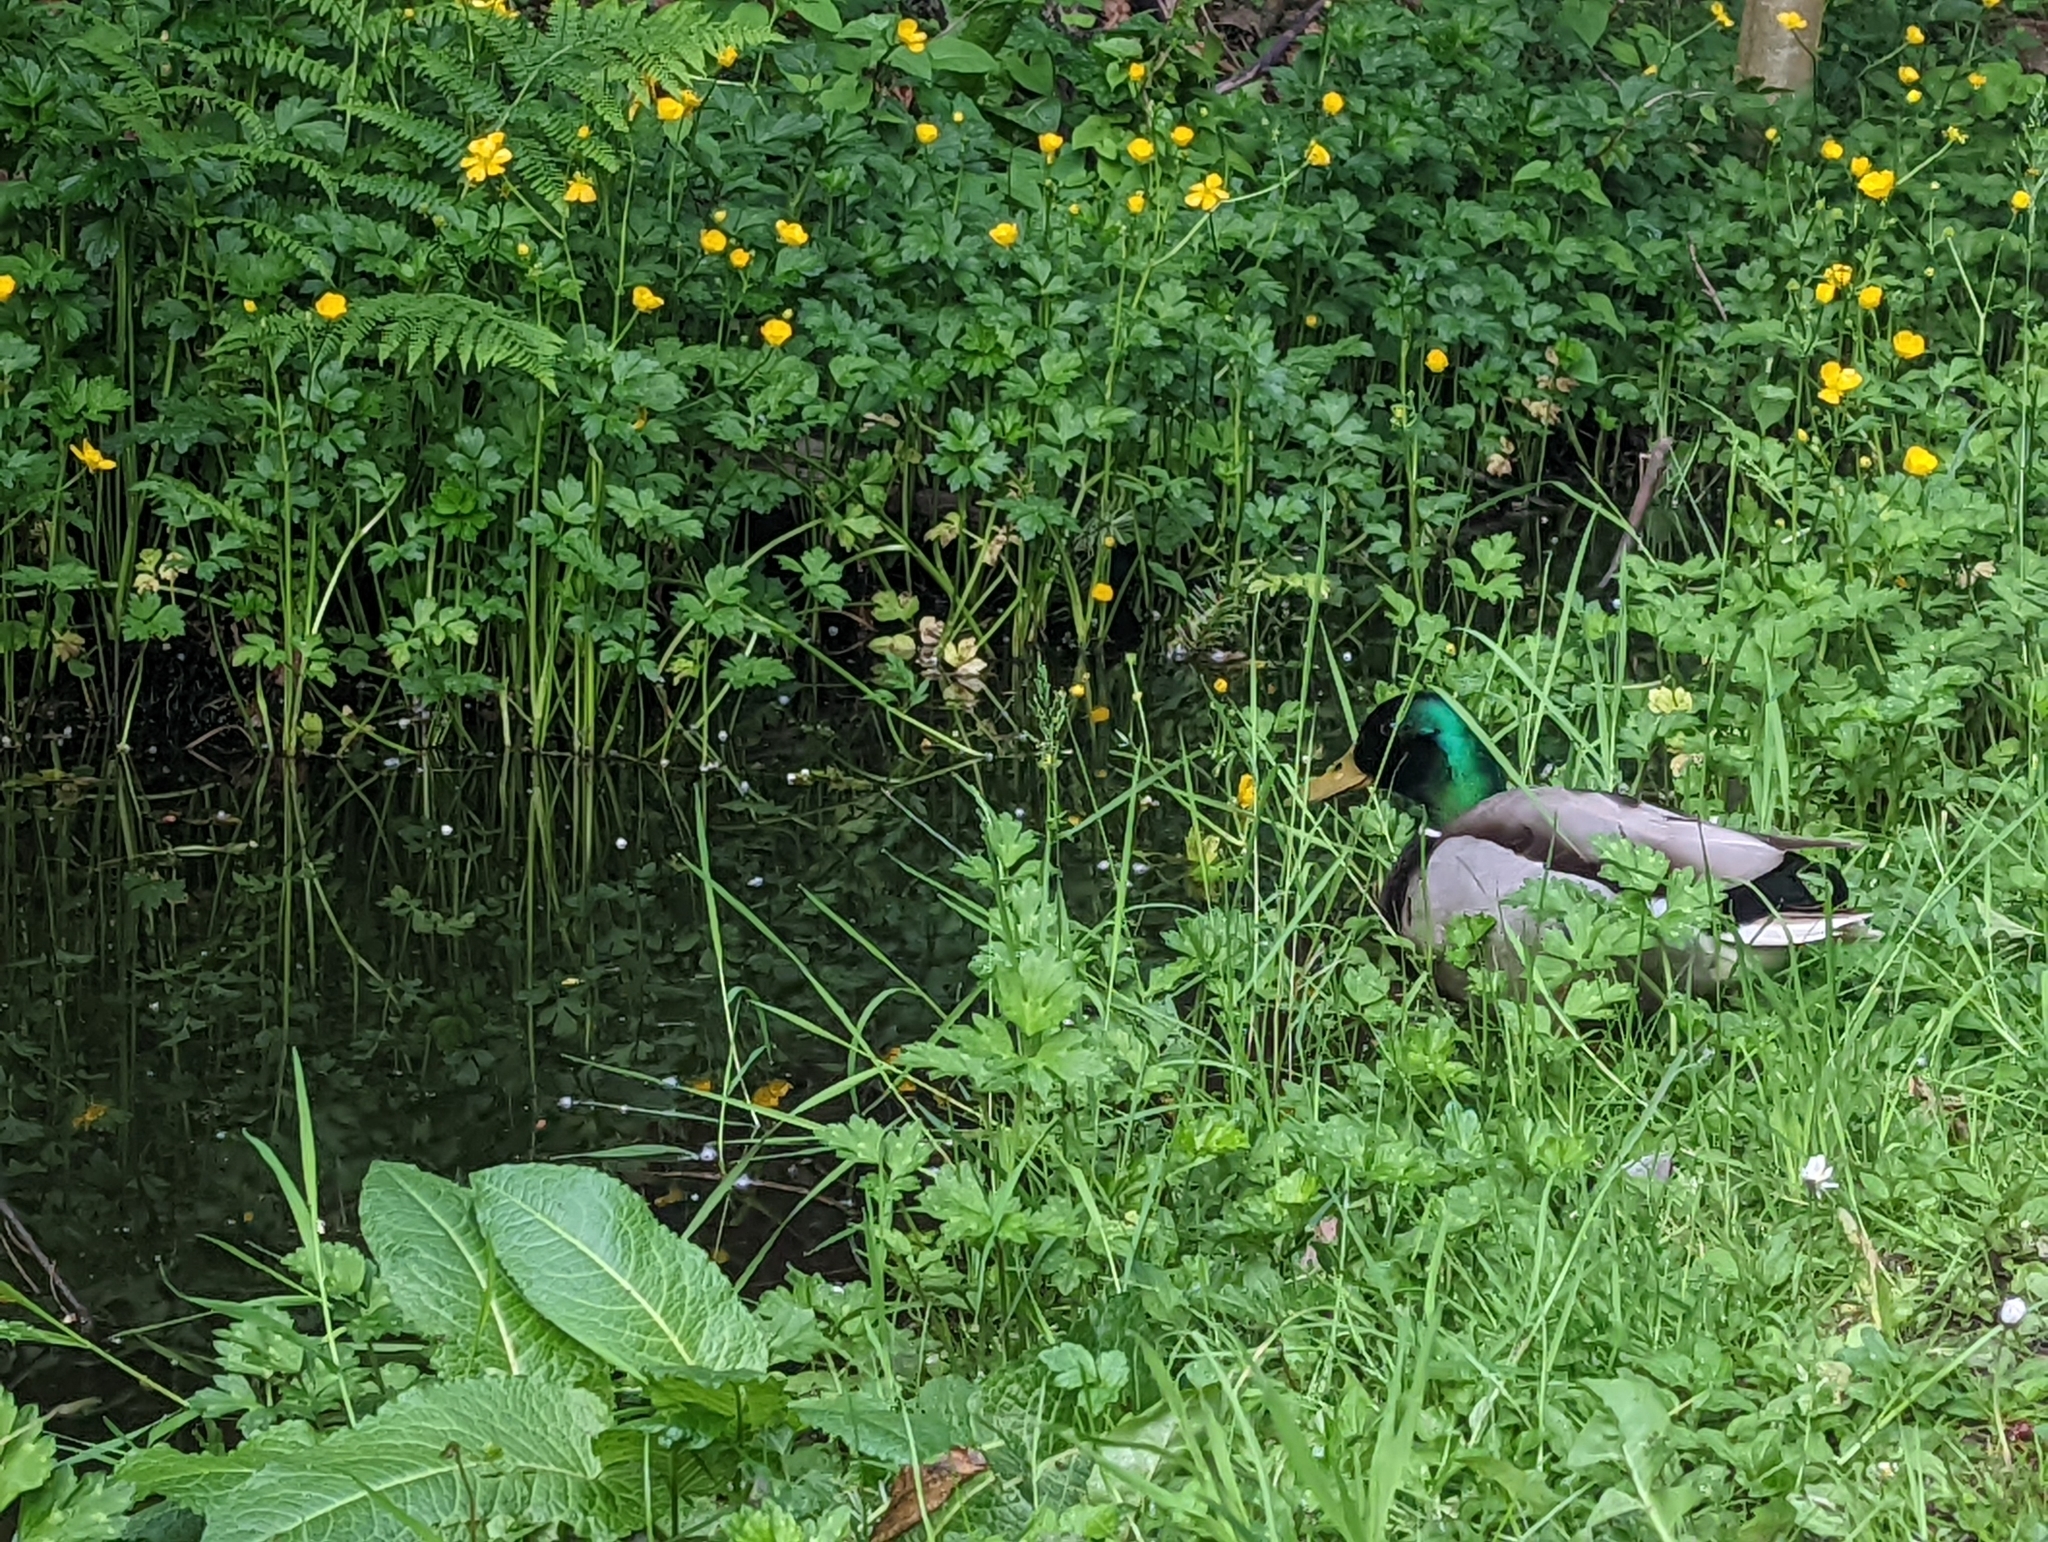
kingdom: Animalia
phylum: Chordata
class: Aves
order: Anseriformes
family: Anatidae
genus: Anas
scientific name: Anas platyrhynchos
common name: Mallard
